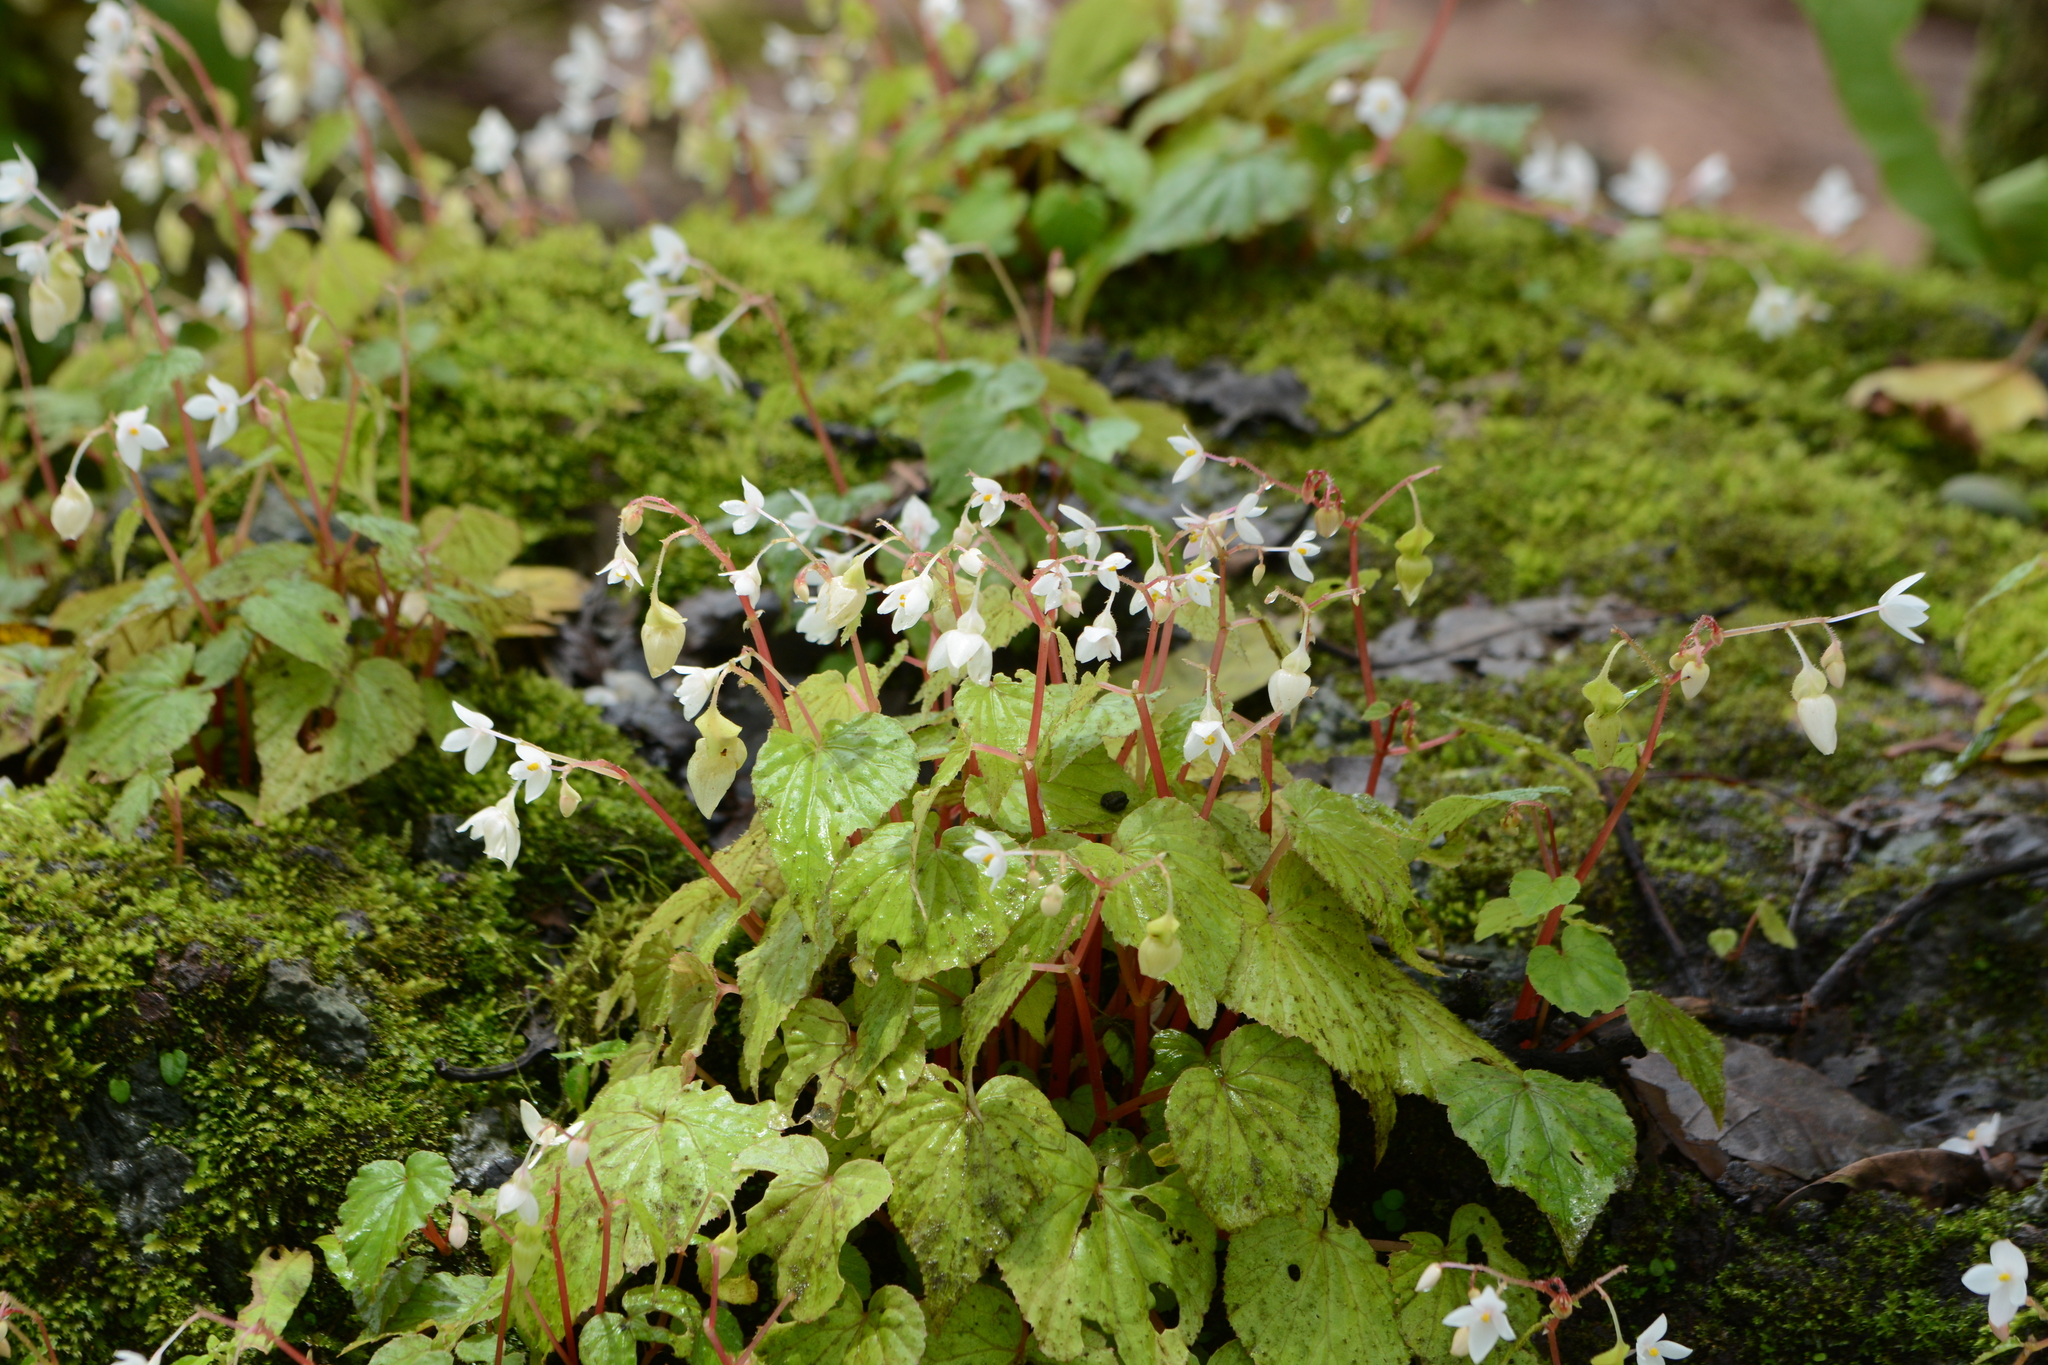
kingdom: Plantae
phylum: Tracheophyta
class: Magnoliopsida
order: Cucurbitales
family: Begoniaceae
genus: Begonia
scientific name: Begonia crenata
